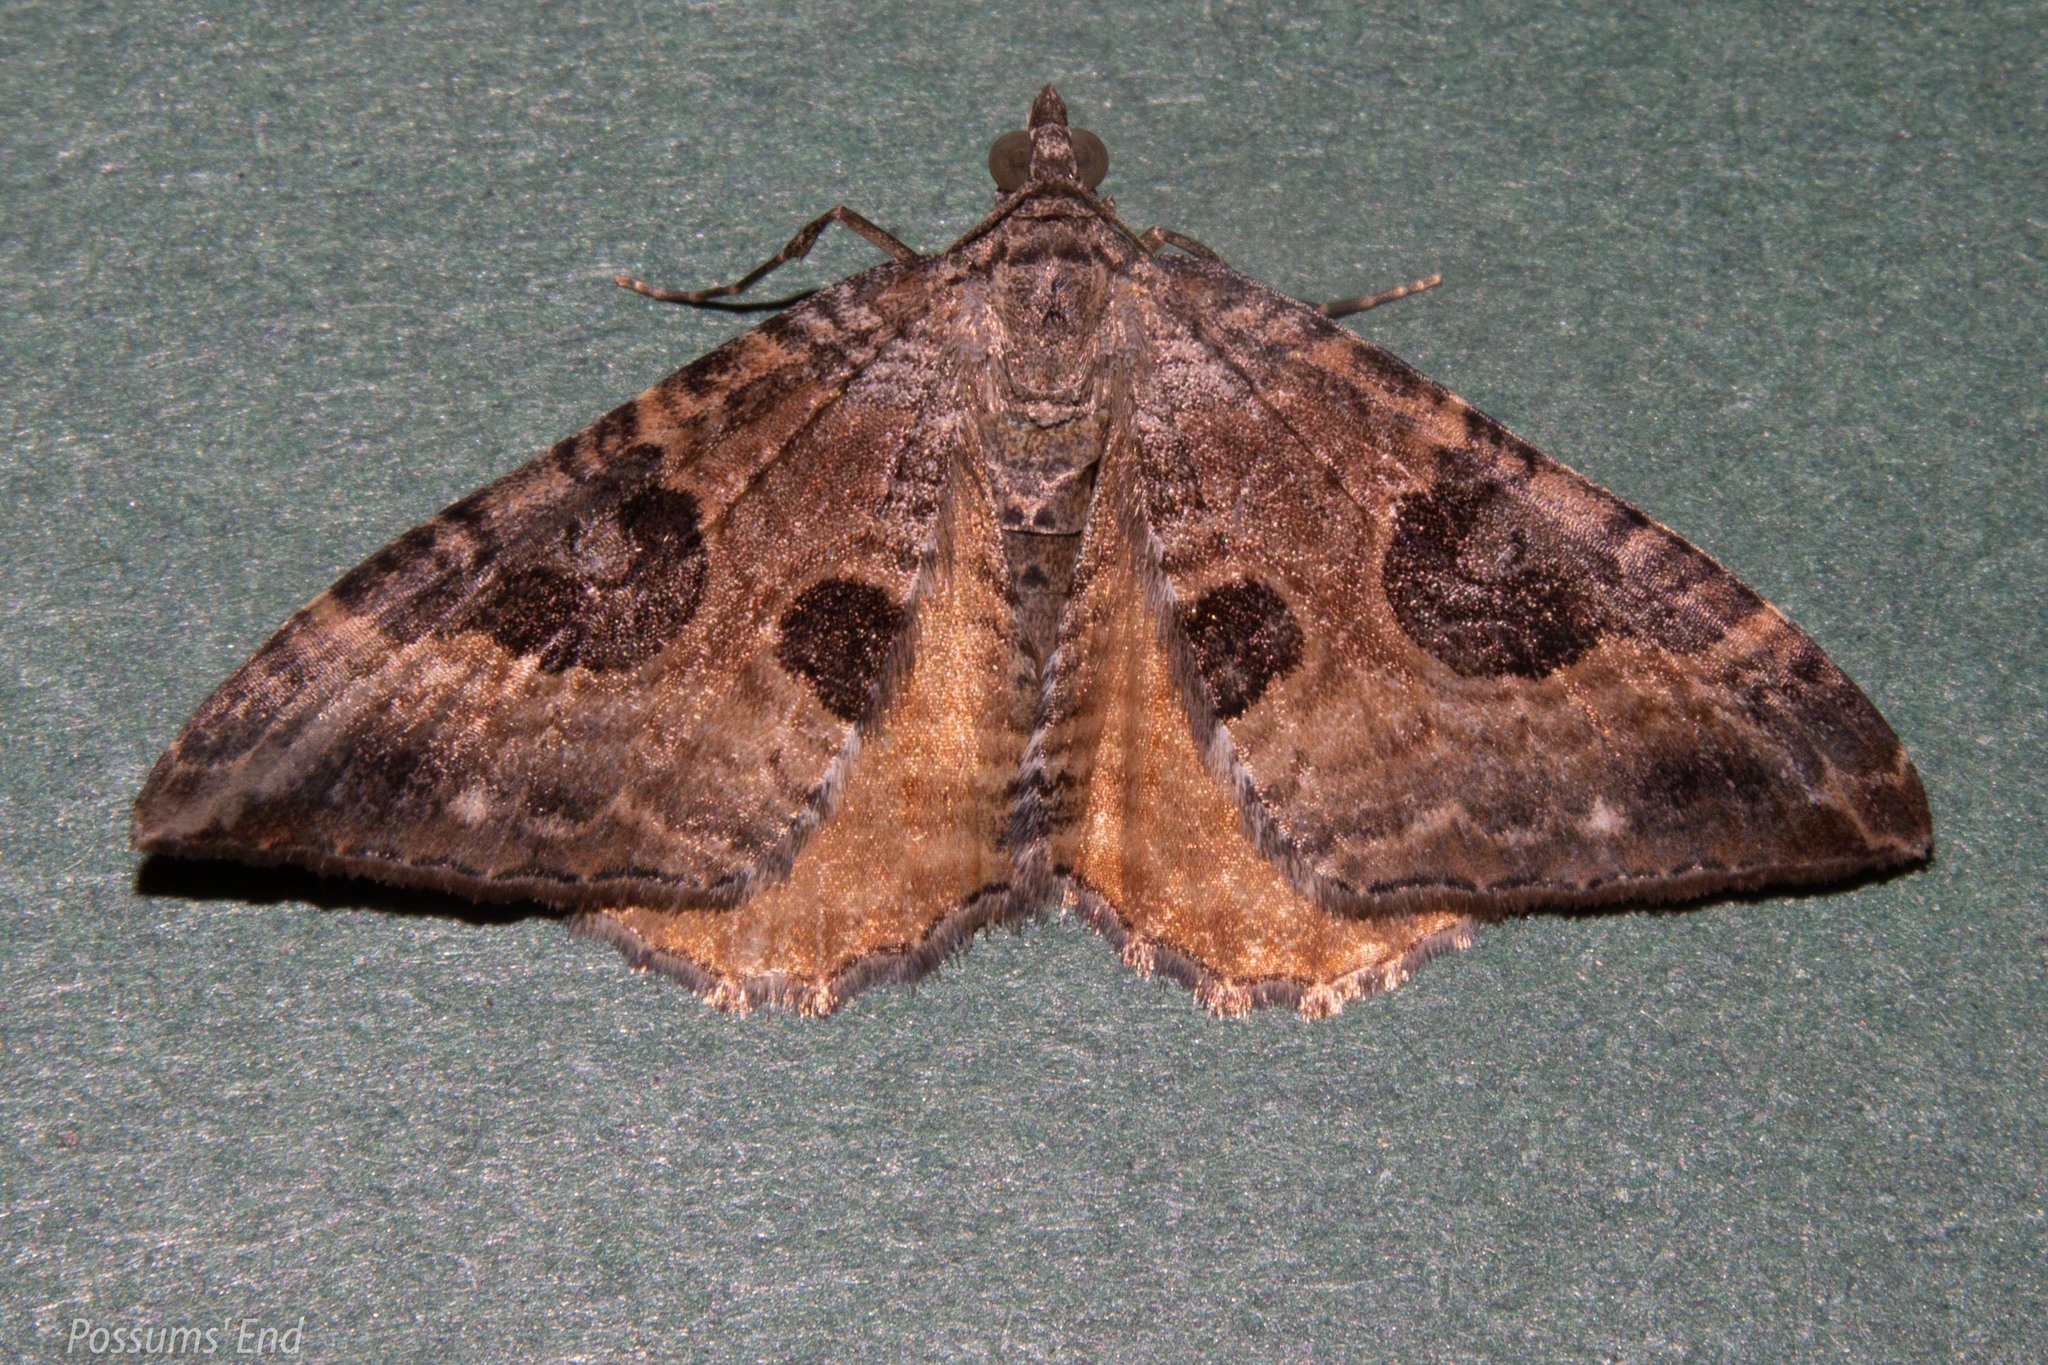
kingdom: Animalia
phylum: Arthropoda
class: Insecta
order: Lepidoptera
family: Geometridae
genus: Hydriomena
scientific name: Hydriomena deltoidata
